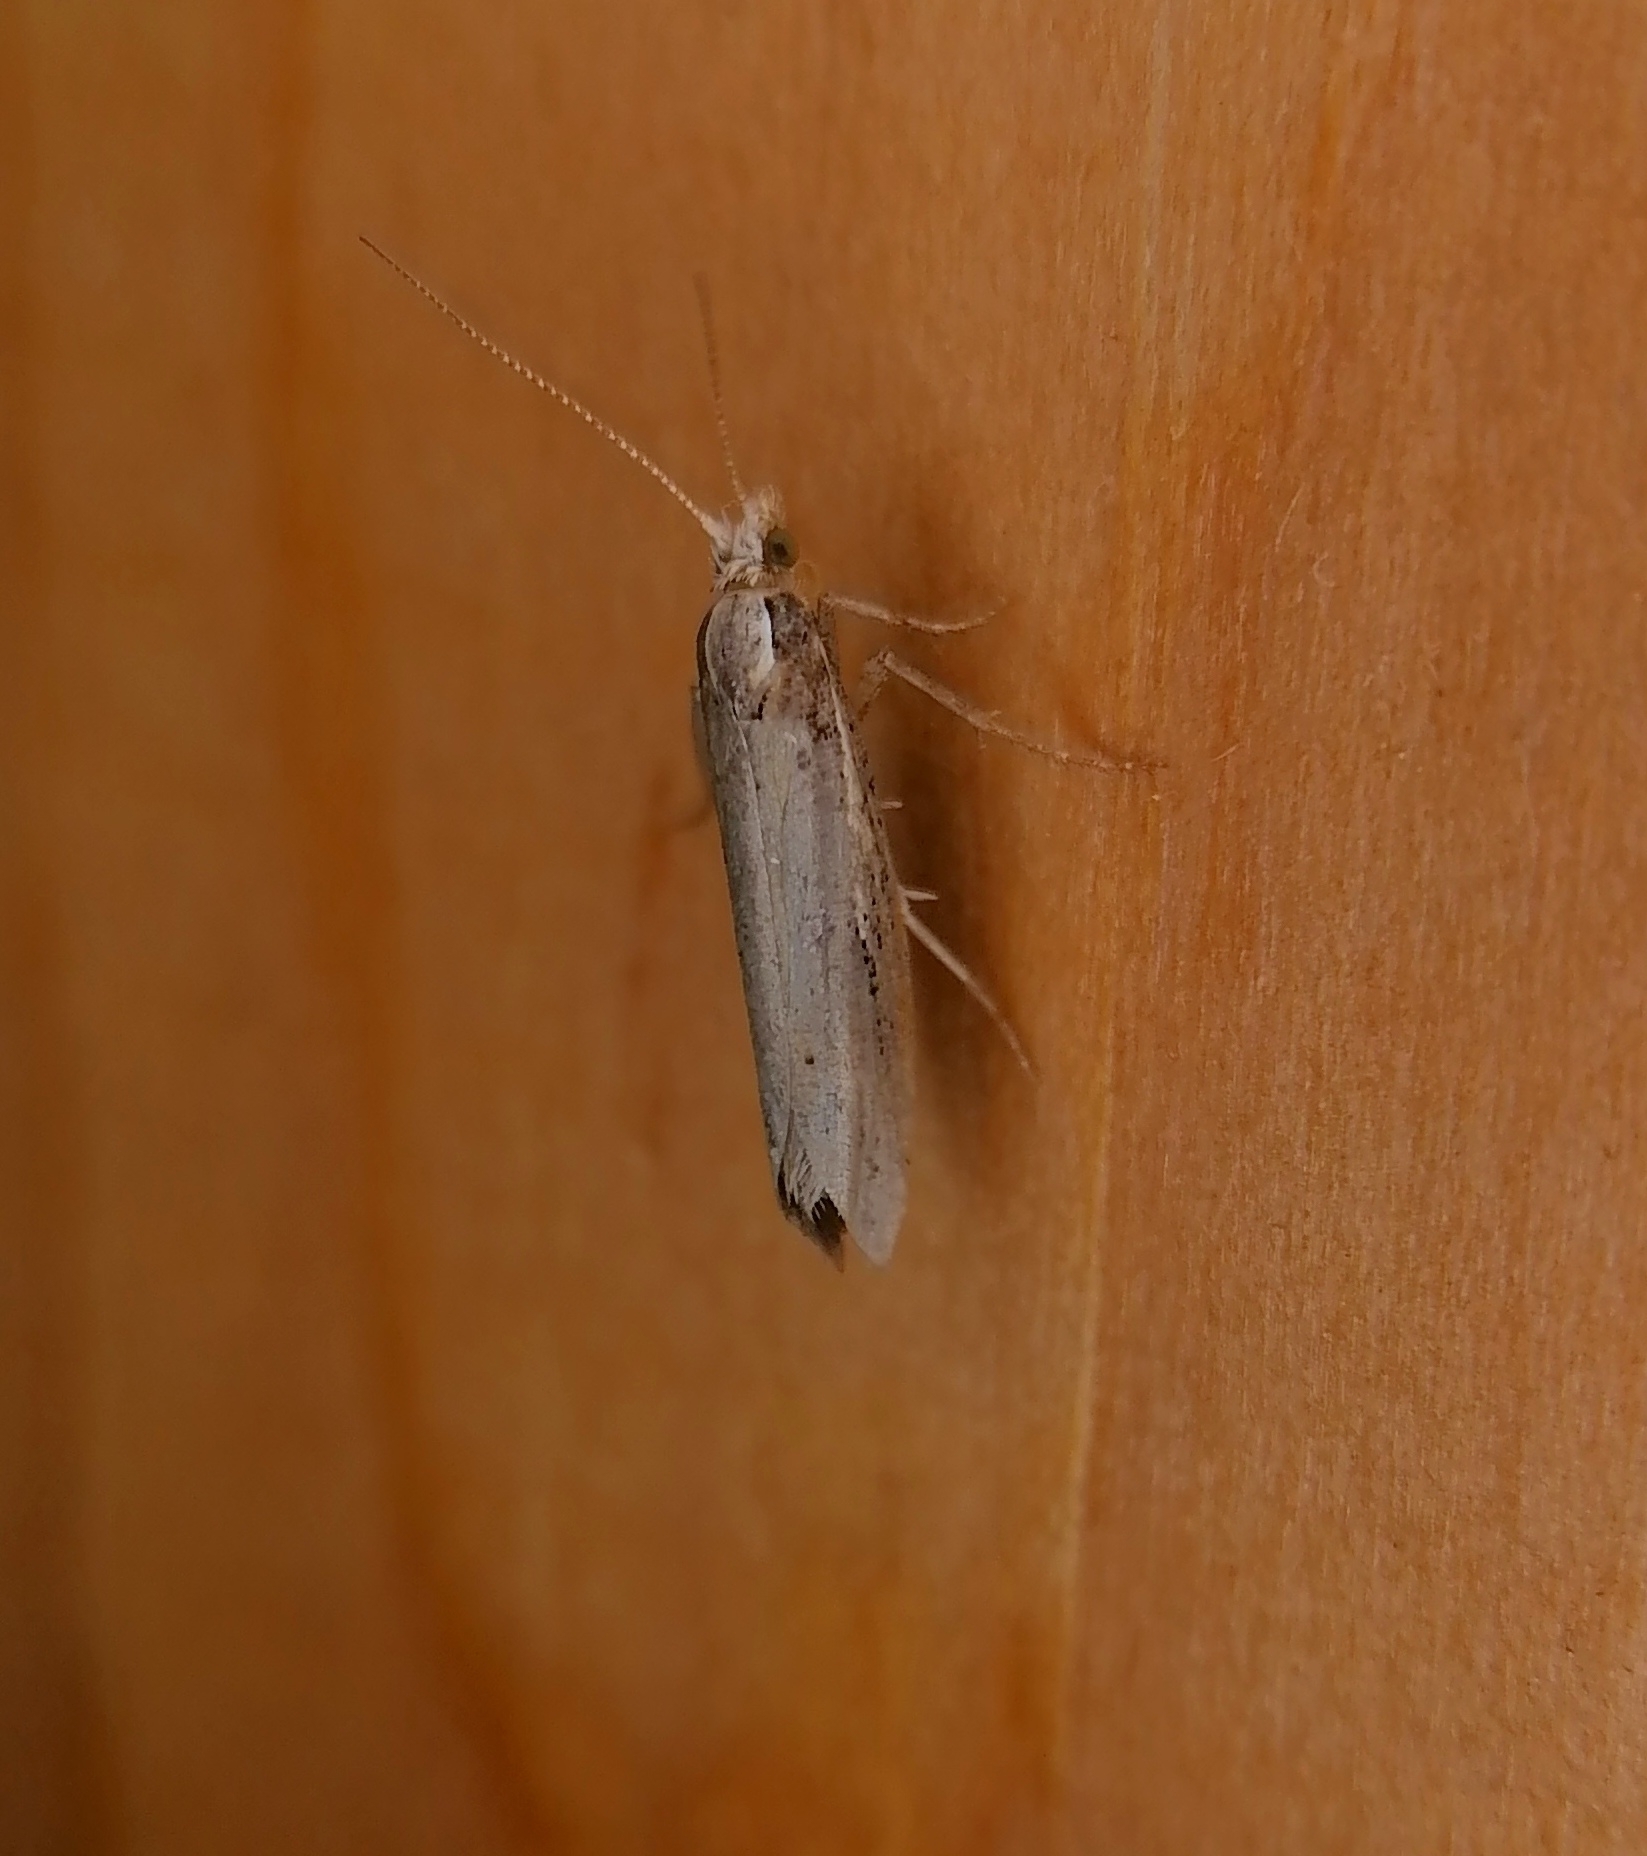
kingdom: Animalia
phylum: Arthropoda
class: Insecta
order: Lepidoptera
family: Ypsolophidae
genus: Ypsolopha
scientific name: Ypsolopha parenthesella
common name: White-shouldered smudge
